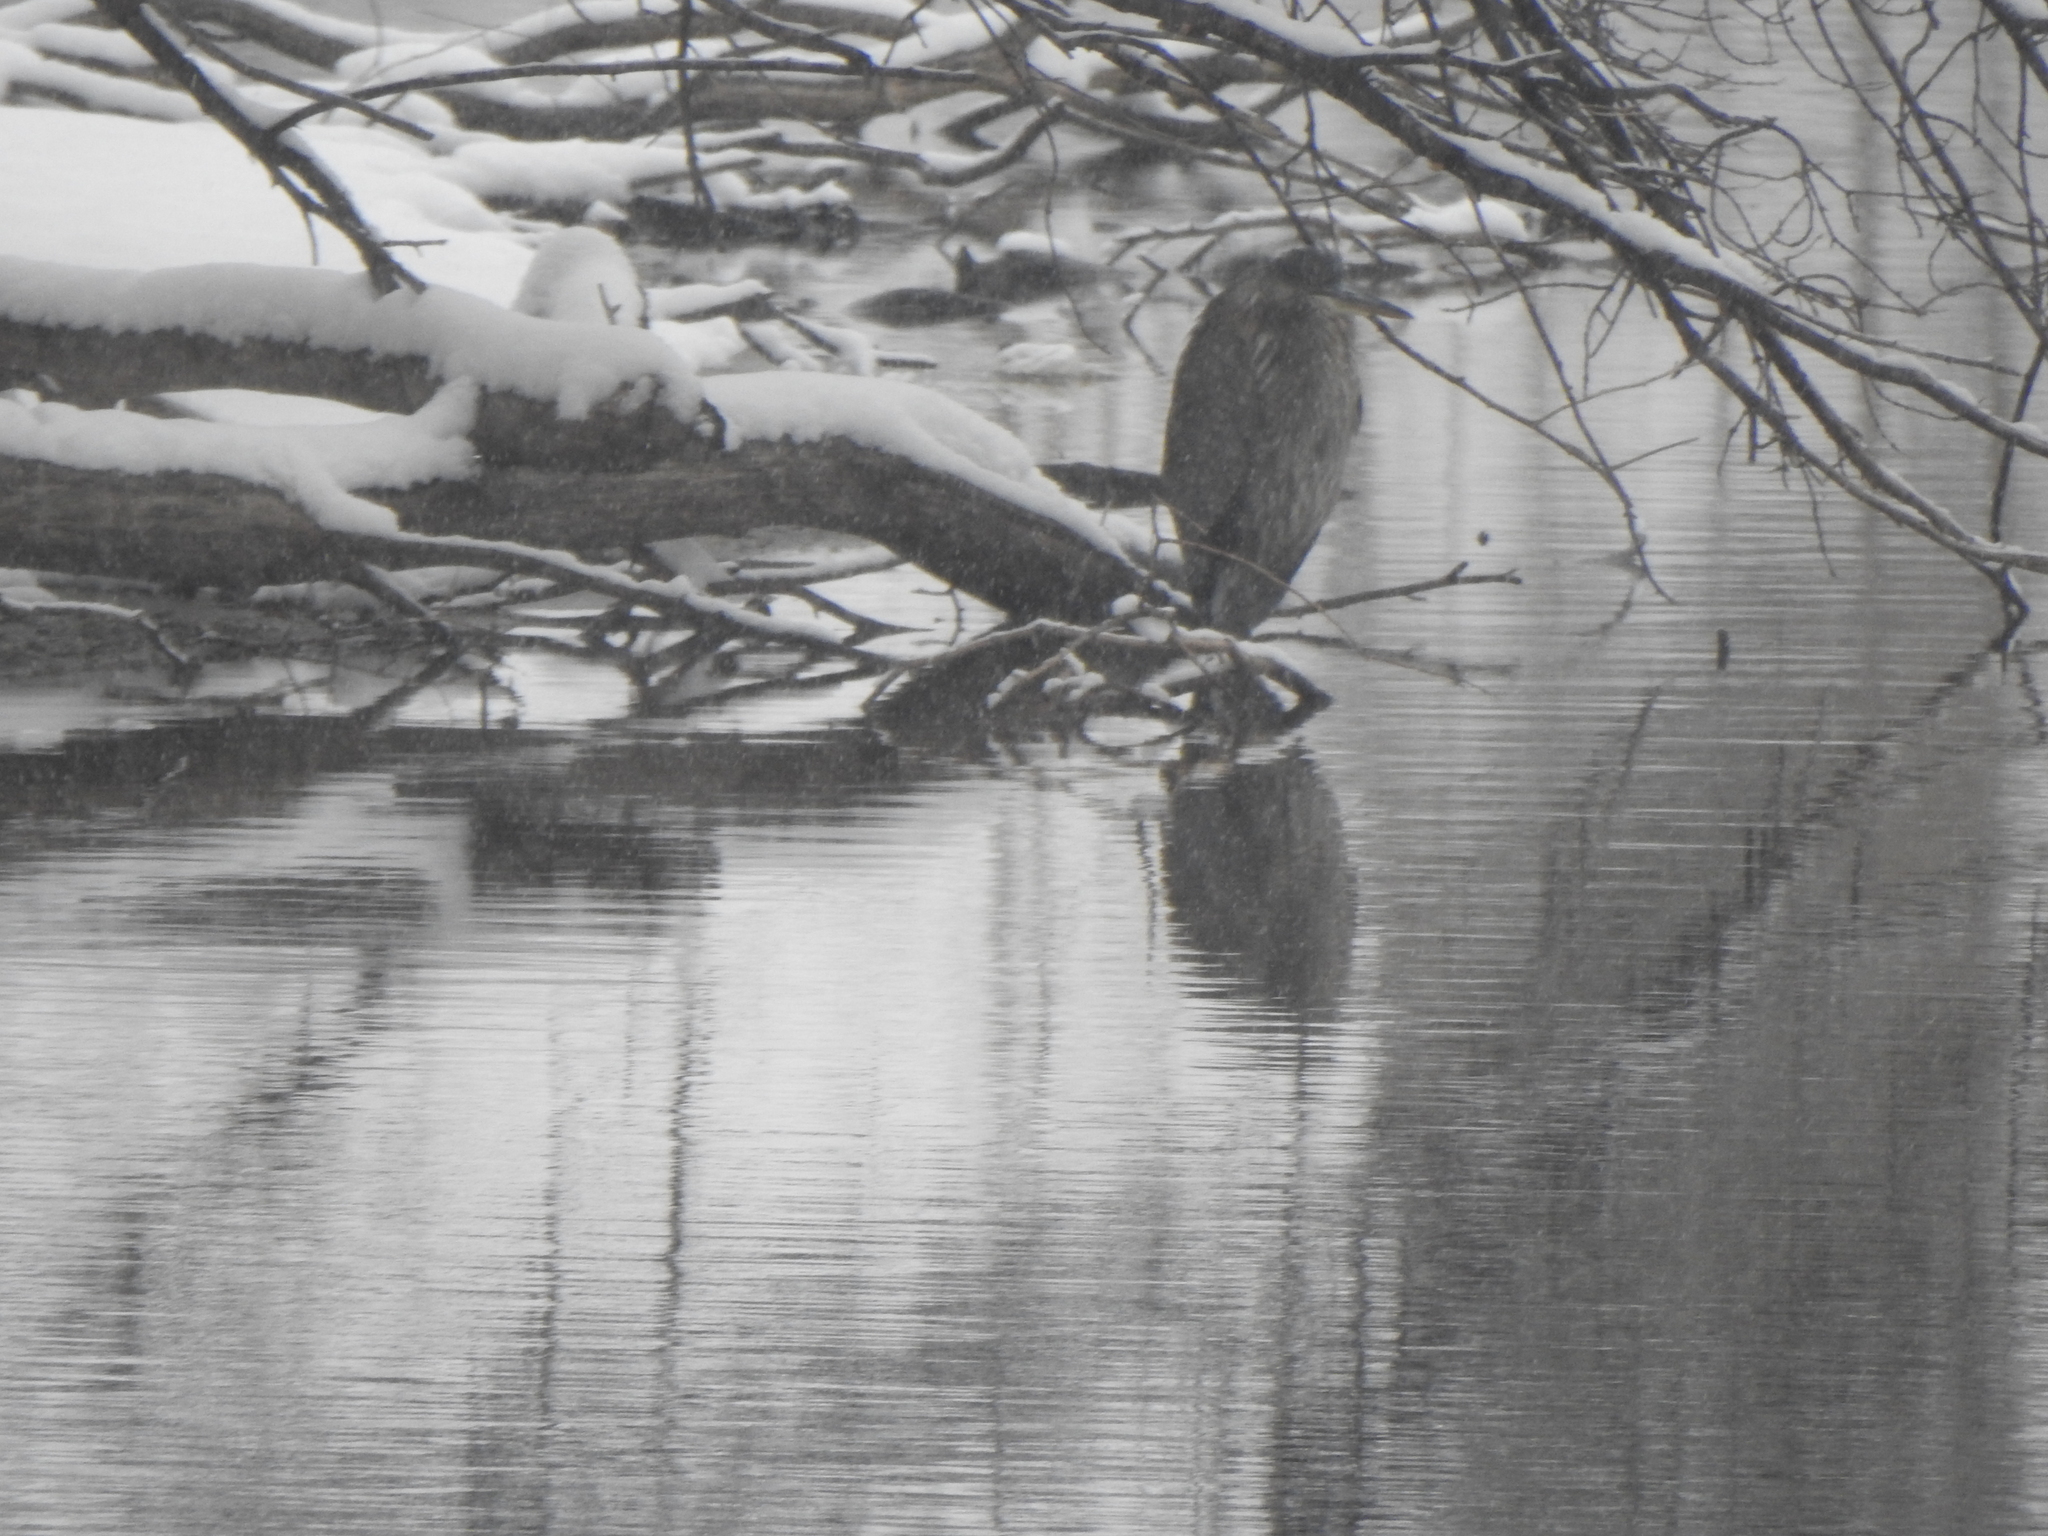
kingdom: Animalia
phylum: Chordata
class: Aves
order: Pelecaniformes
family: Ardeidae
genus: Ardea
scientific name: Ardea herodias
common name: Great blue heron
